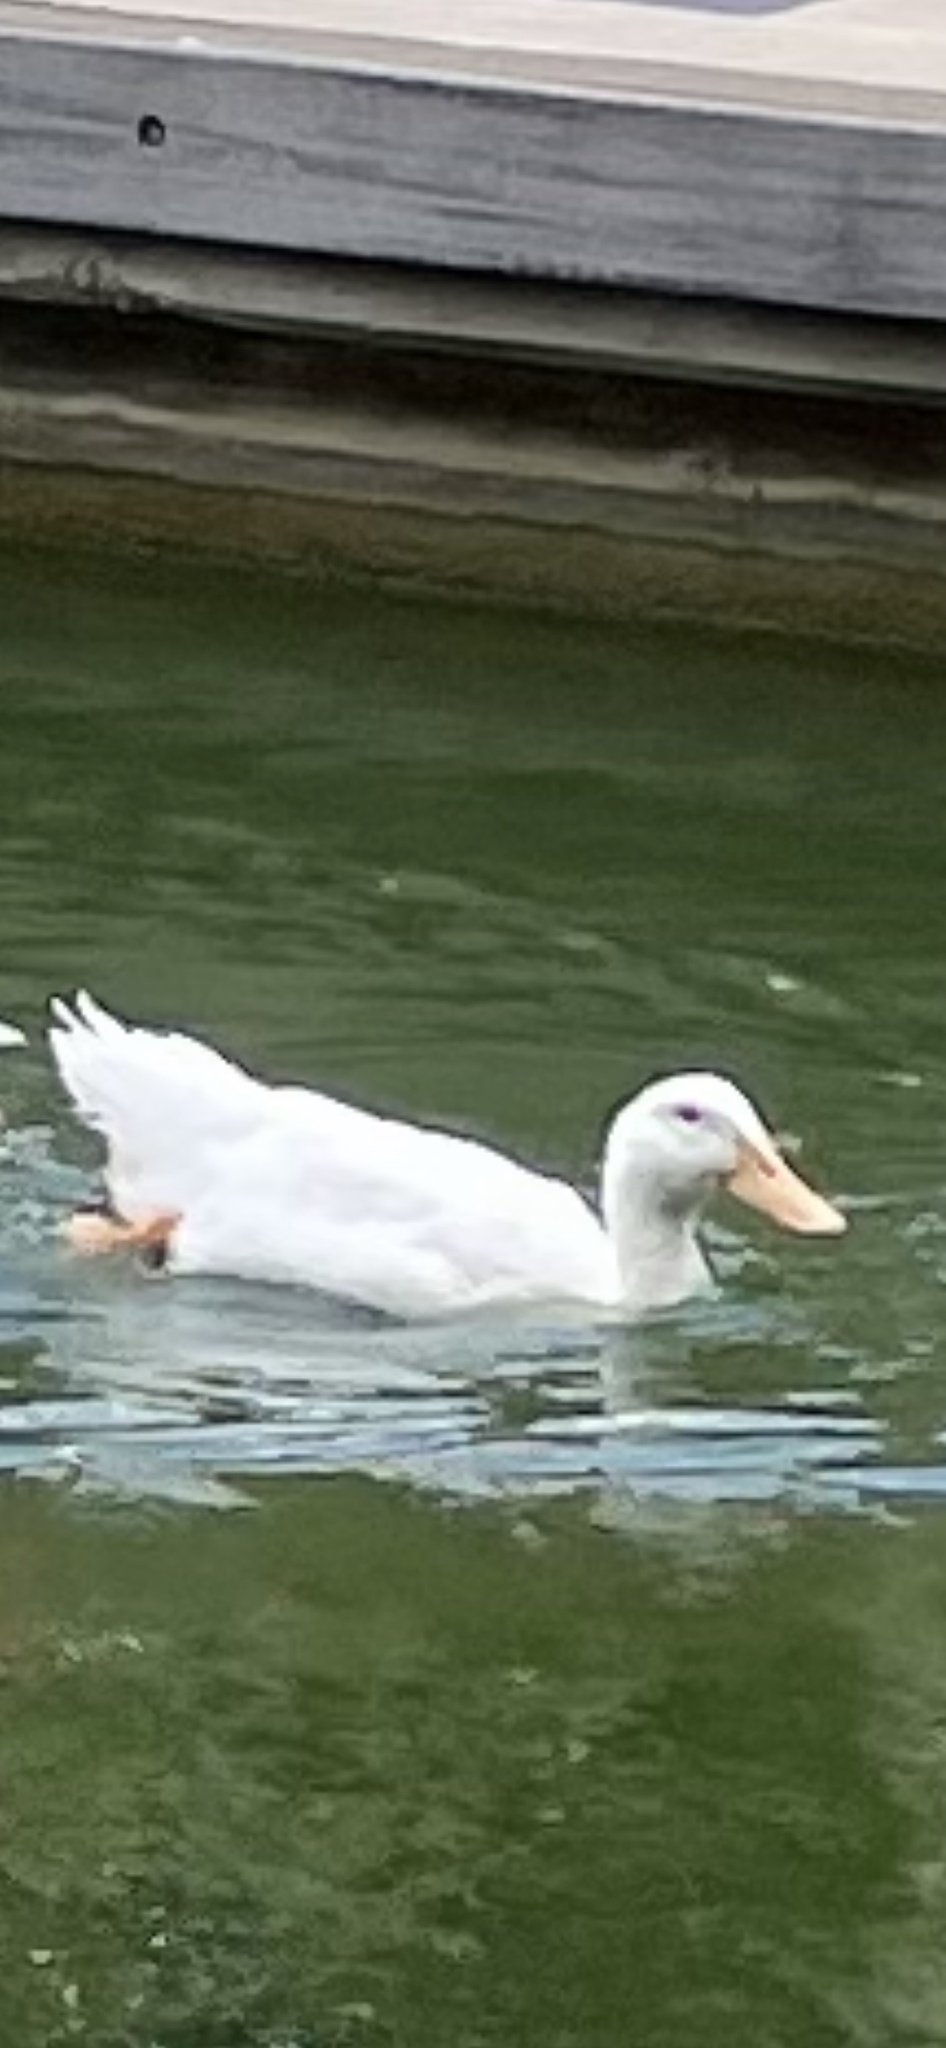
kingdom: Animalia
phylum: Chordata
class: Aves
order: Anseriformes
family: Anatidae
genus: Anas
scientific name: Anas platyrhynchos
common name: Mallard
